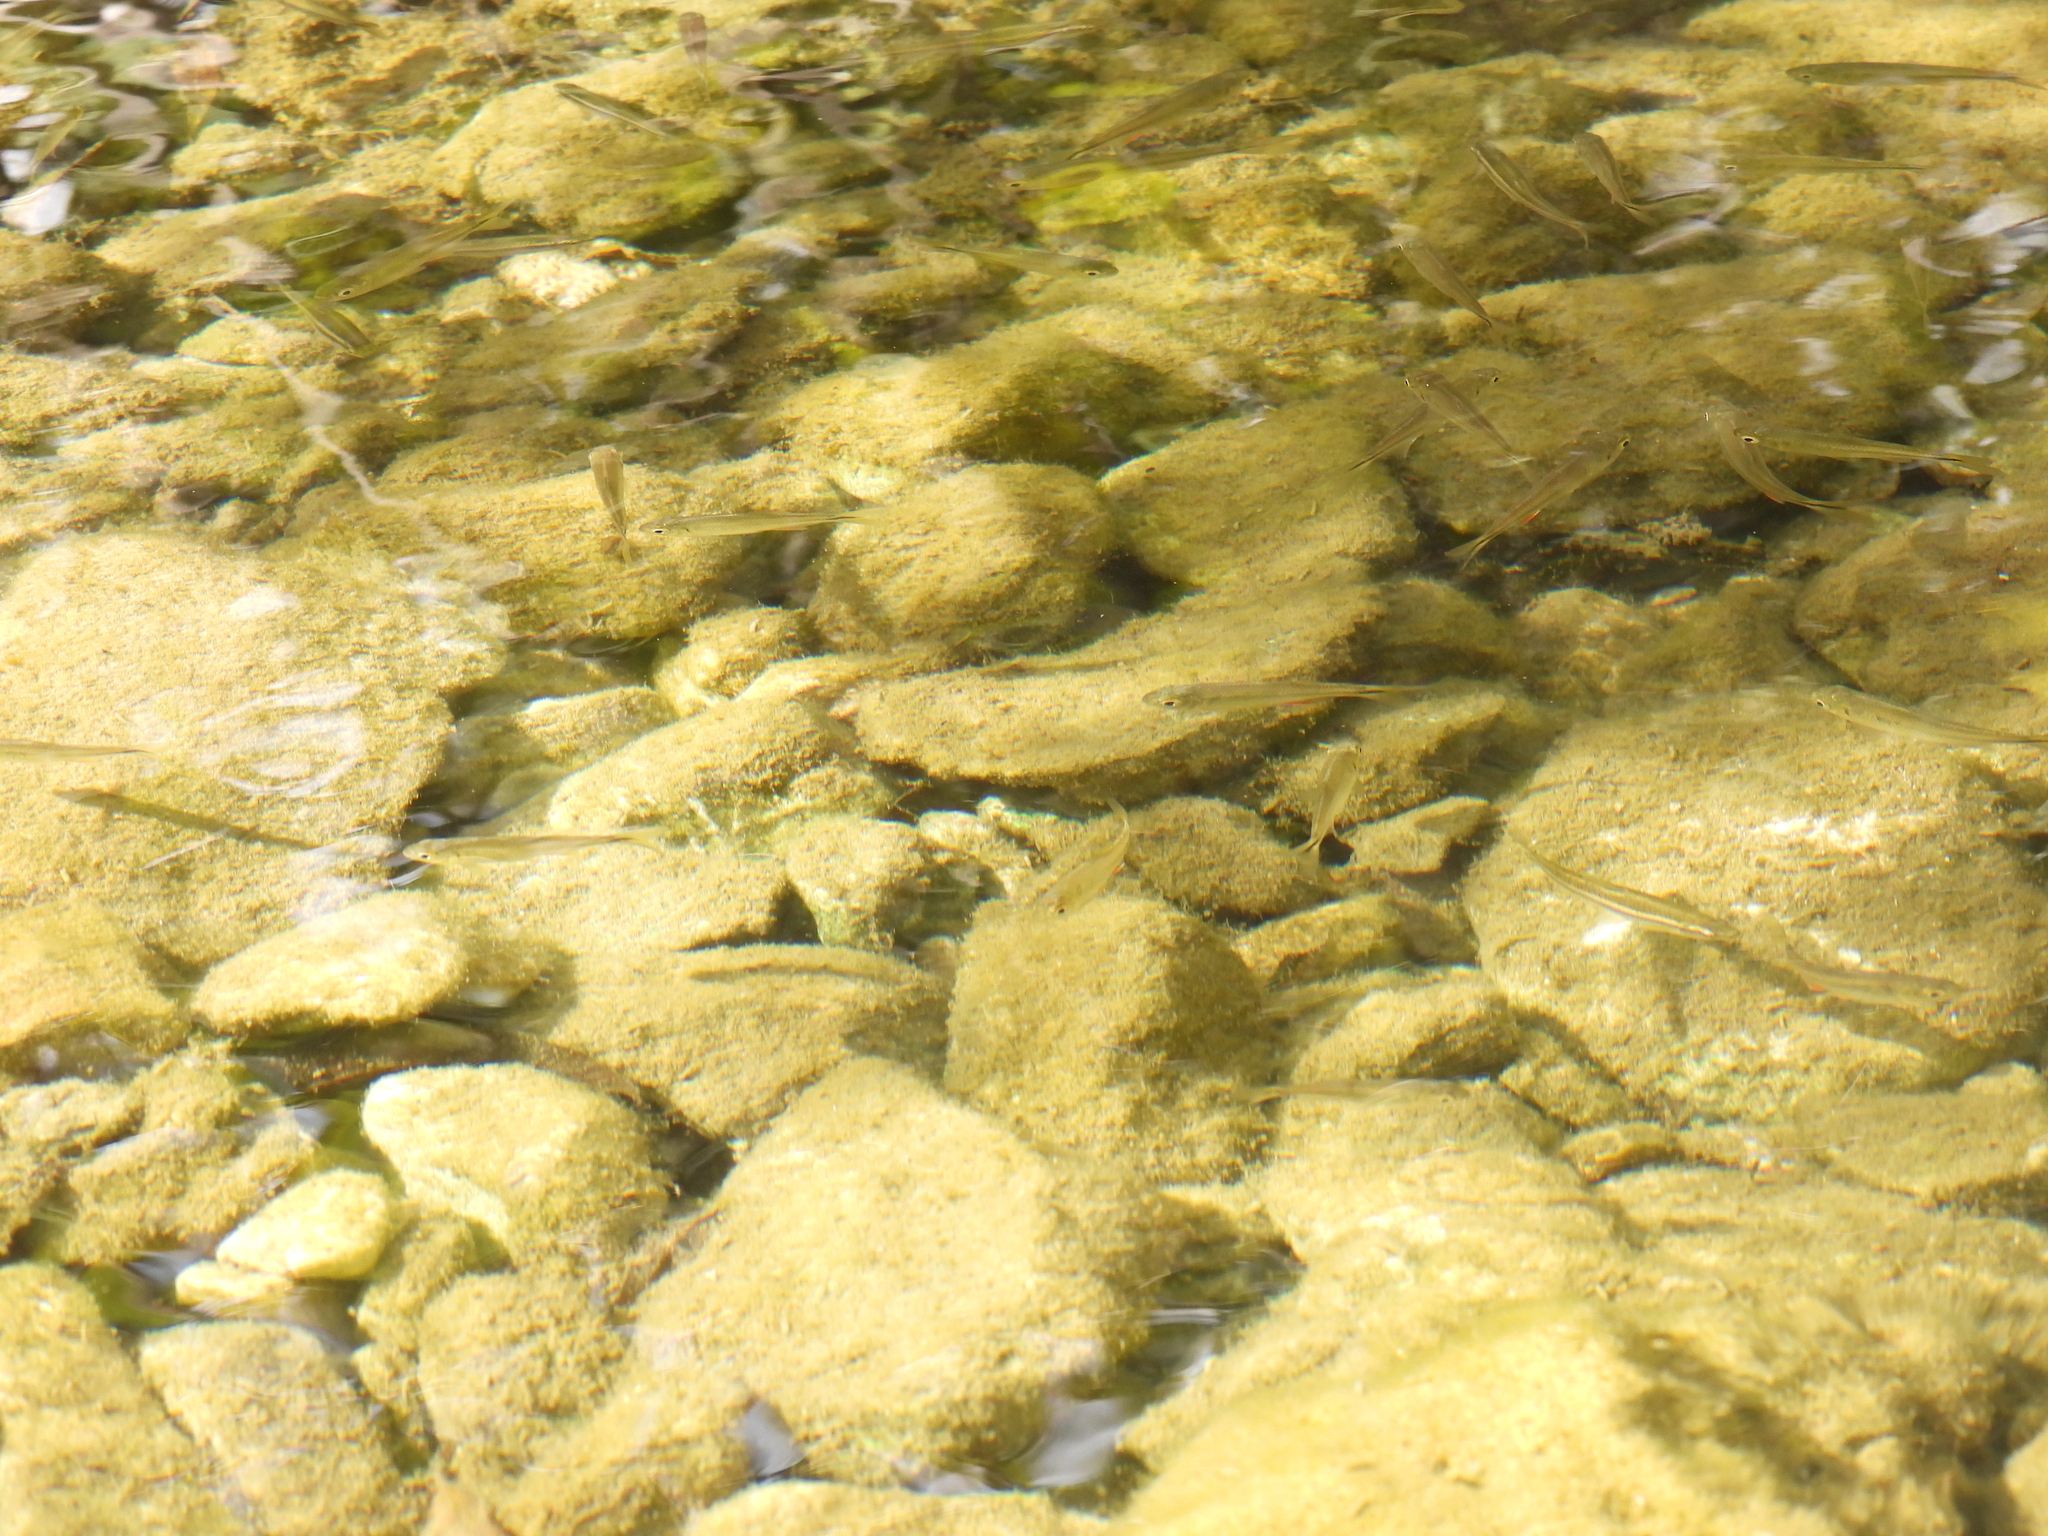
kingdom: Animalia
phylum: Chordata
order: Characiformes
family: Characidae
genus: Astyanax
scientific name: Astyanax mexicanus
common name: Mexican tetra
